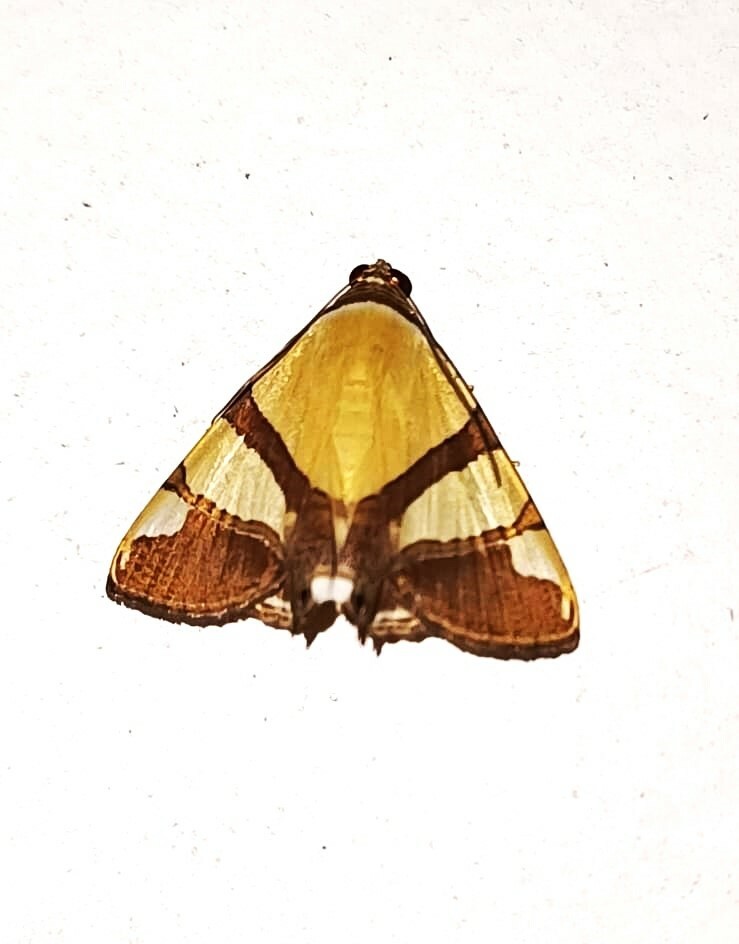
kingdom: Animalia
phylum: Arthropoda
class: Insecta
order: Lepidoptera
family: Erebidae
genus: Eulepidotis
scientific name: Eulepidotis julianata
